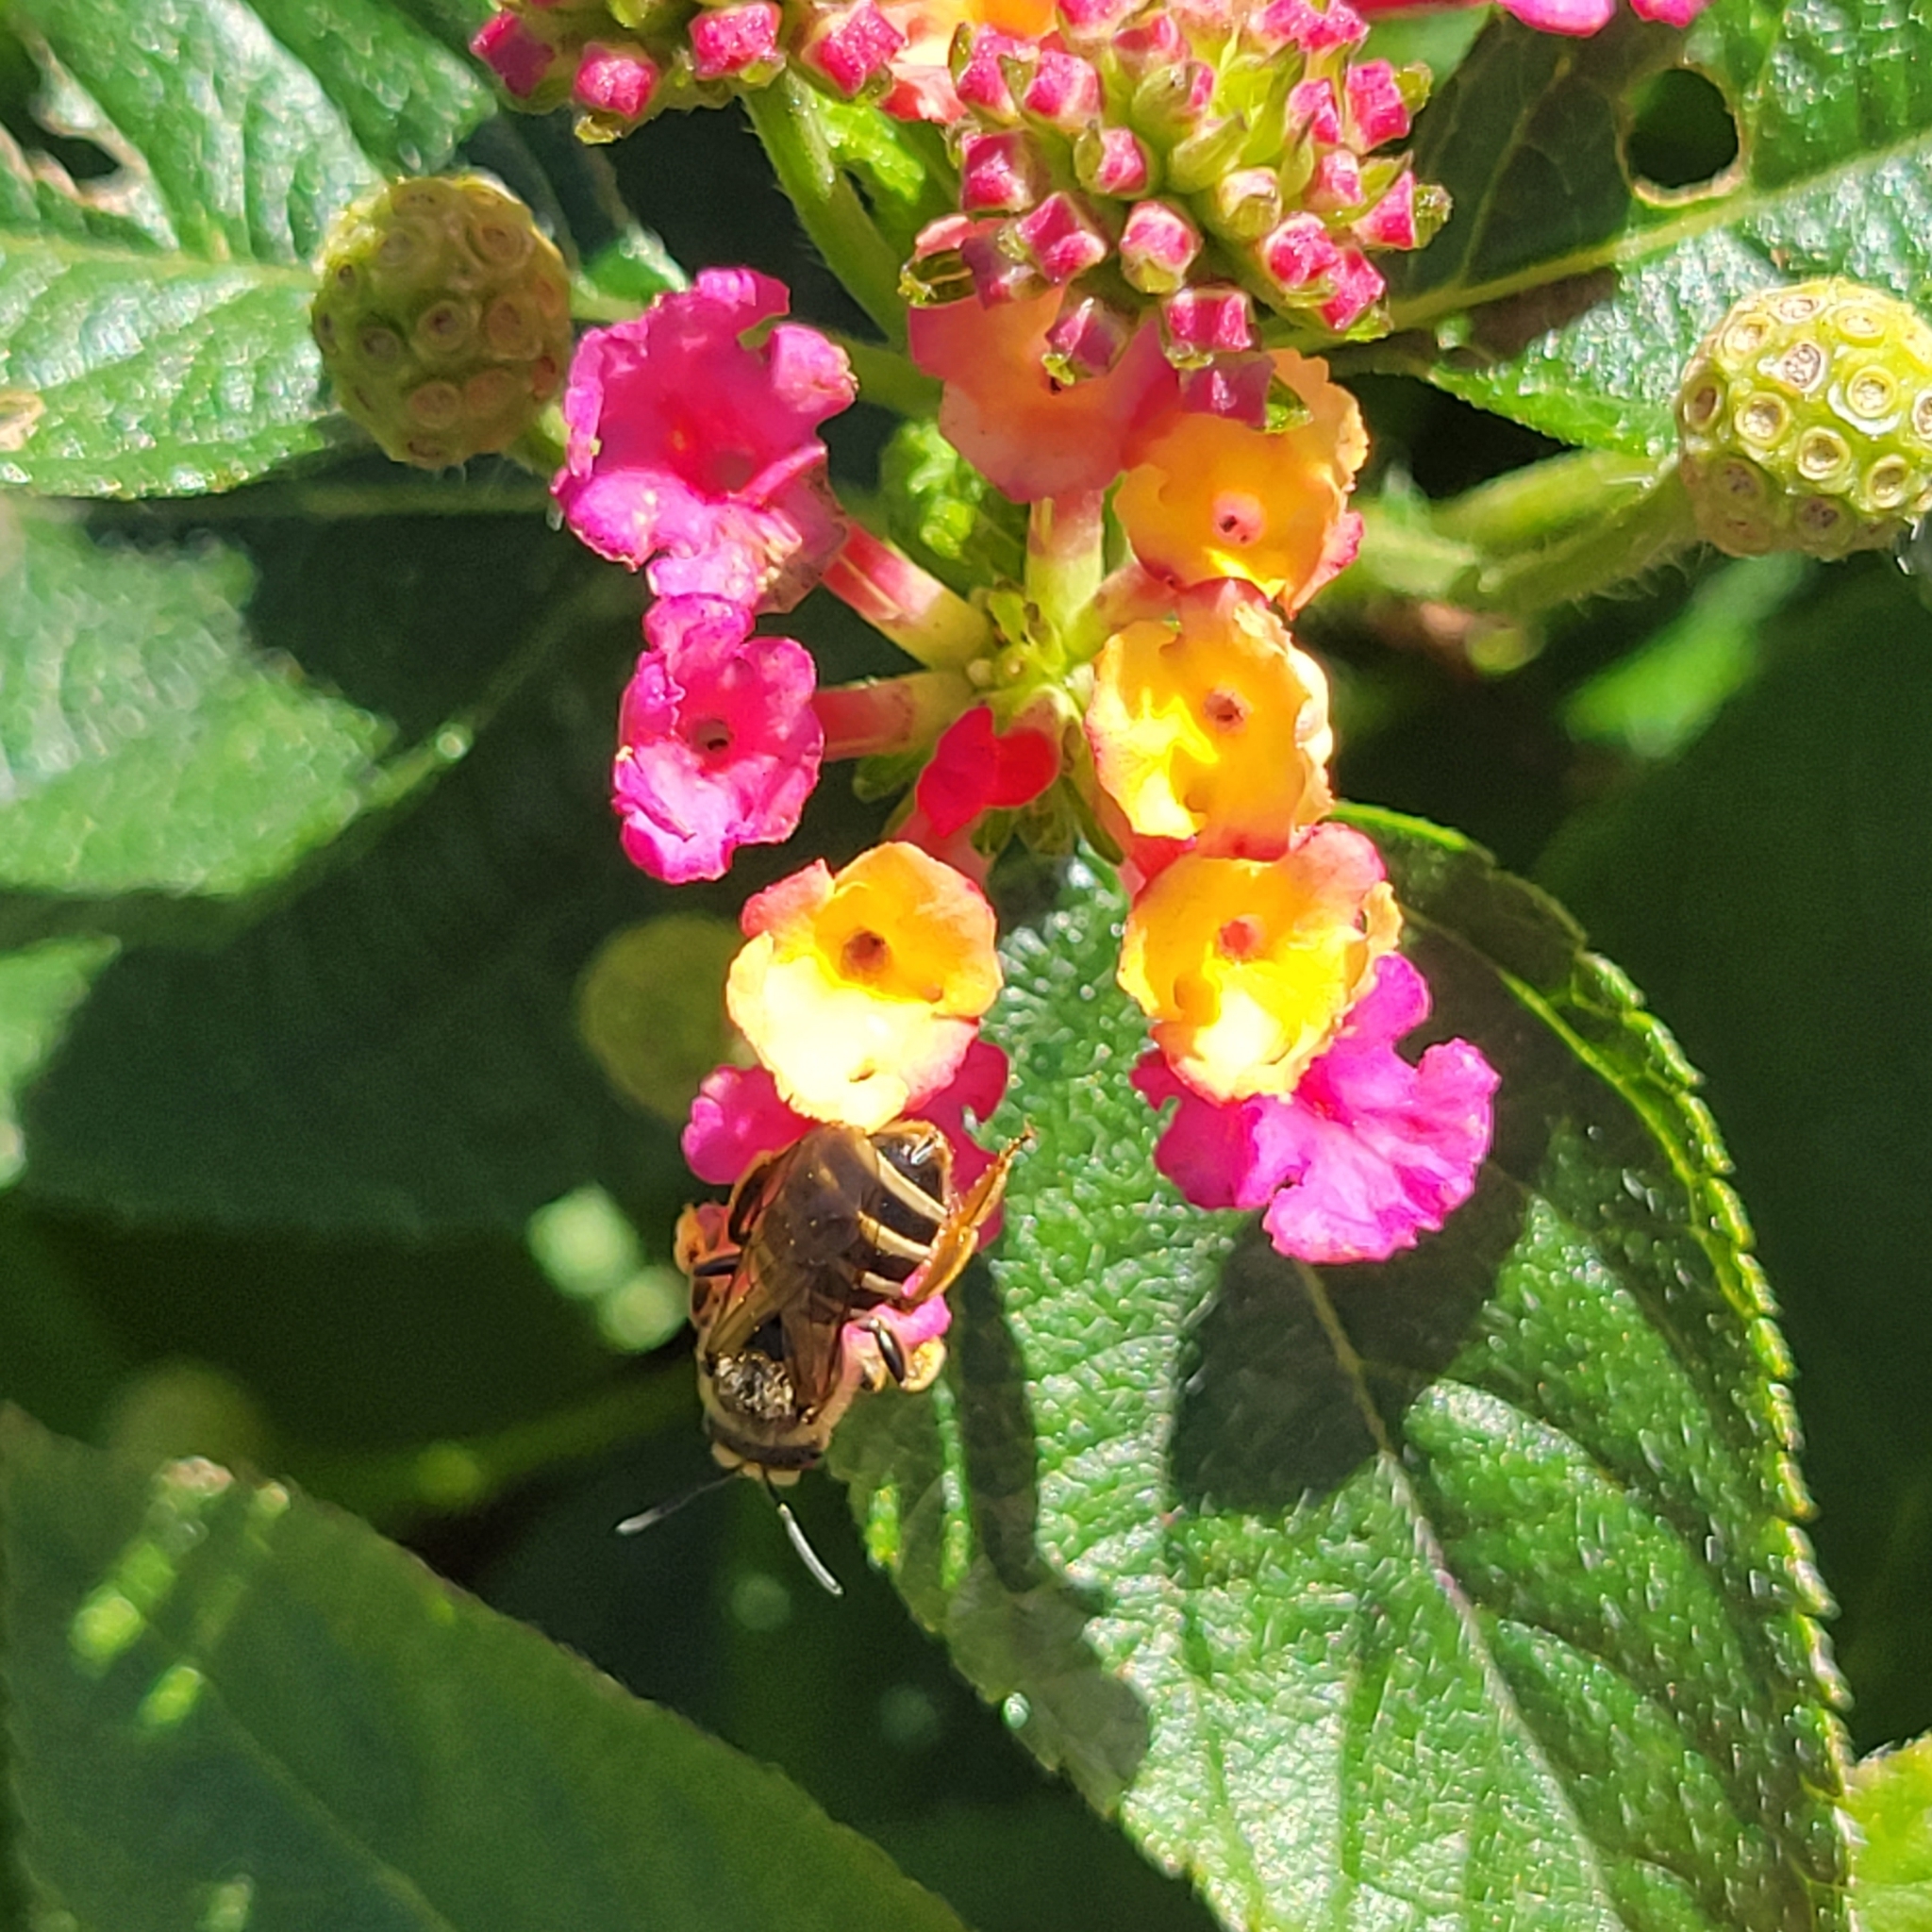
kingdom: Animalia
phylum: Arthropoda
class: Insecta
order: Hymenoptera
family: Halictidae
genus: Halictus
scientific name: Halictus
